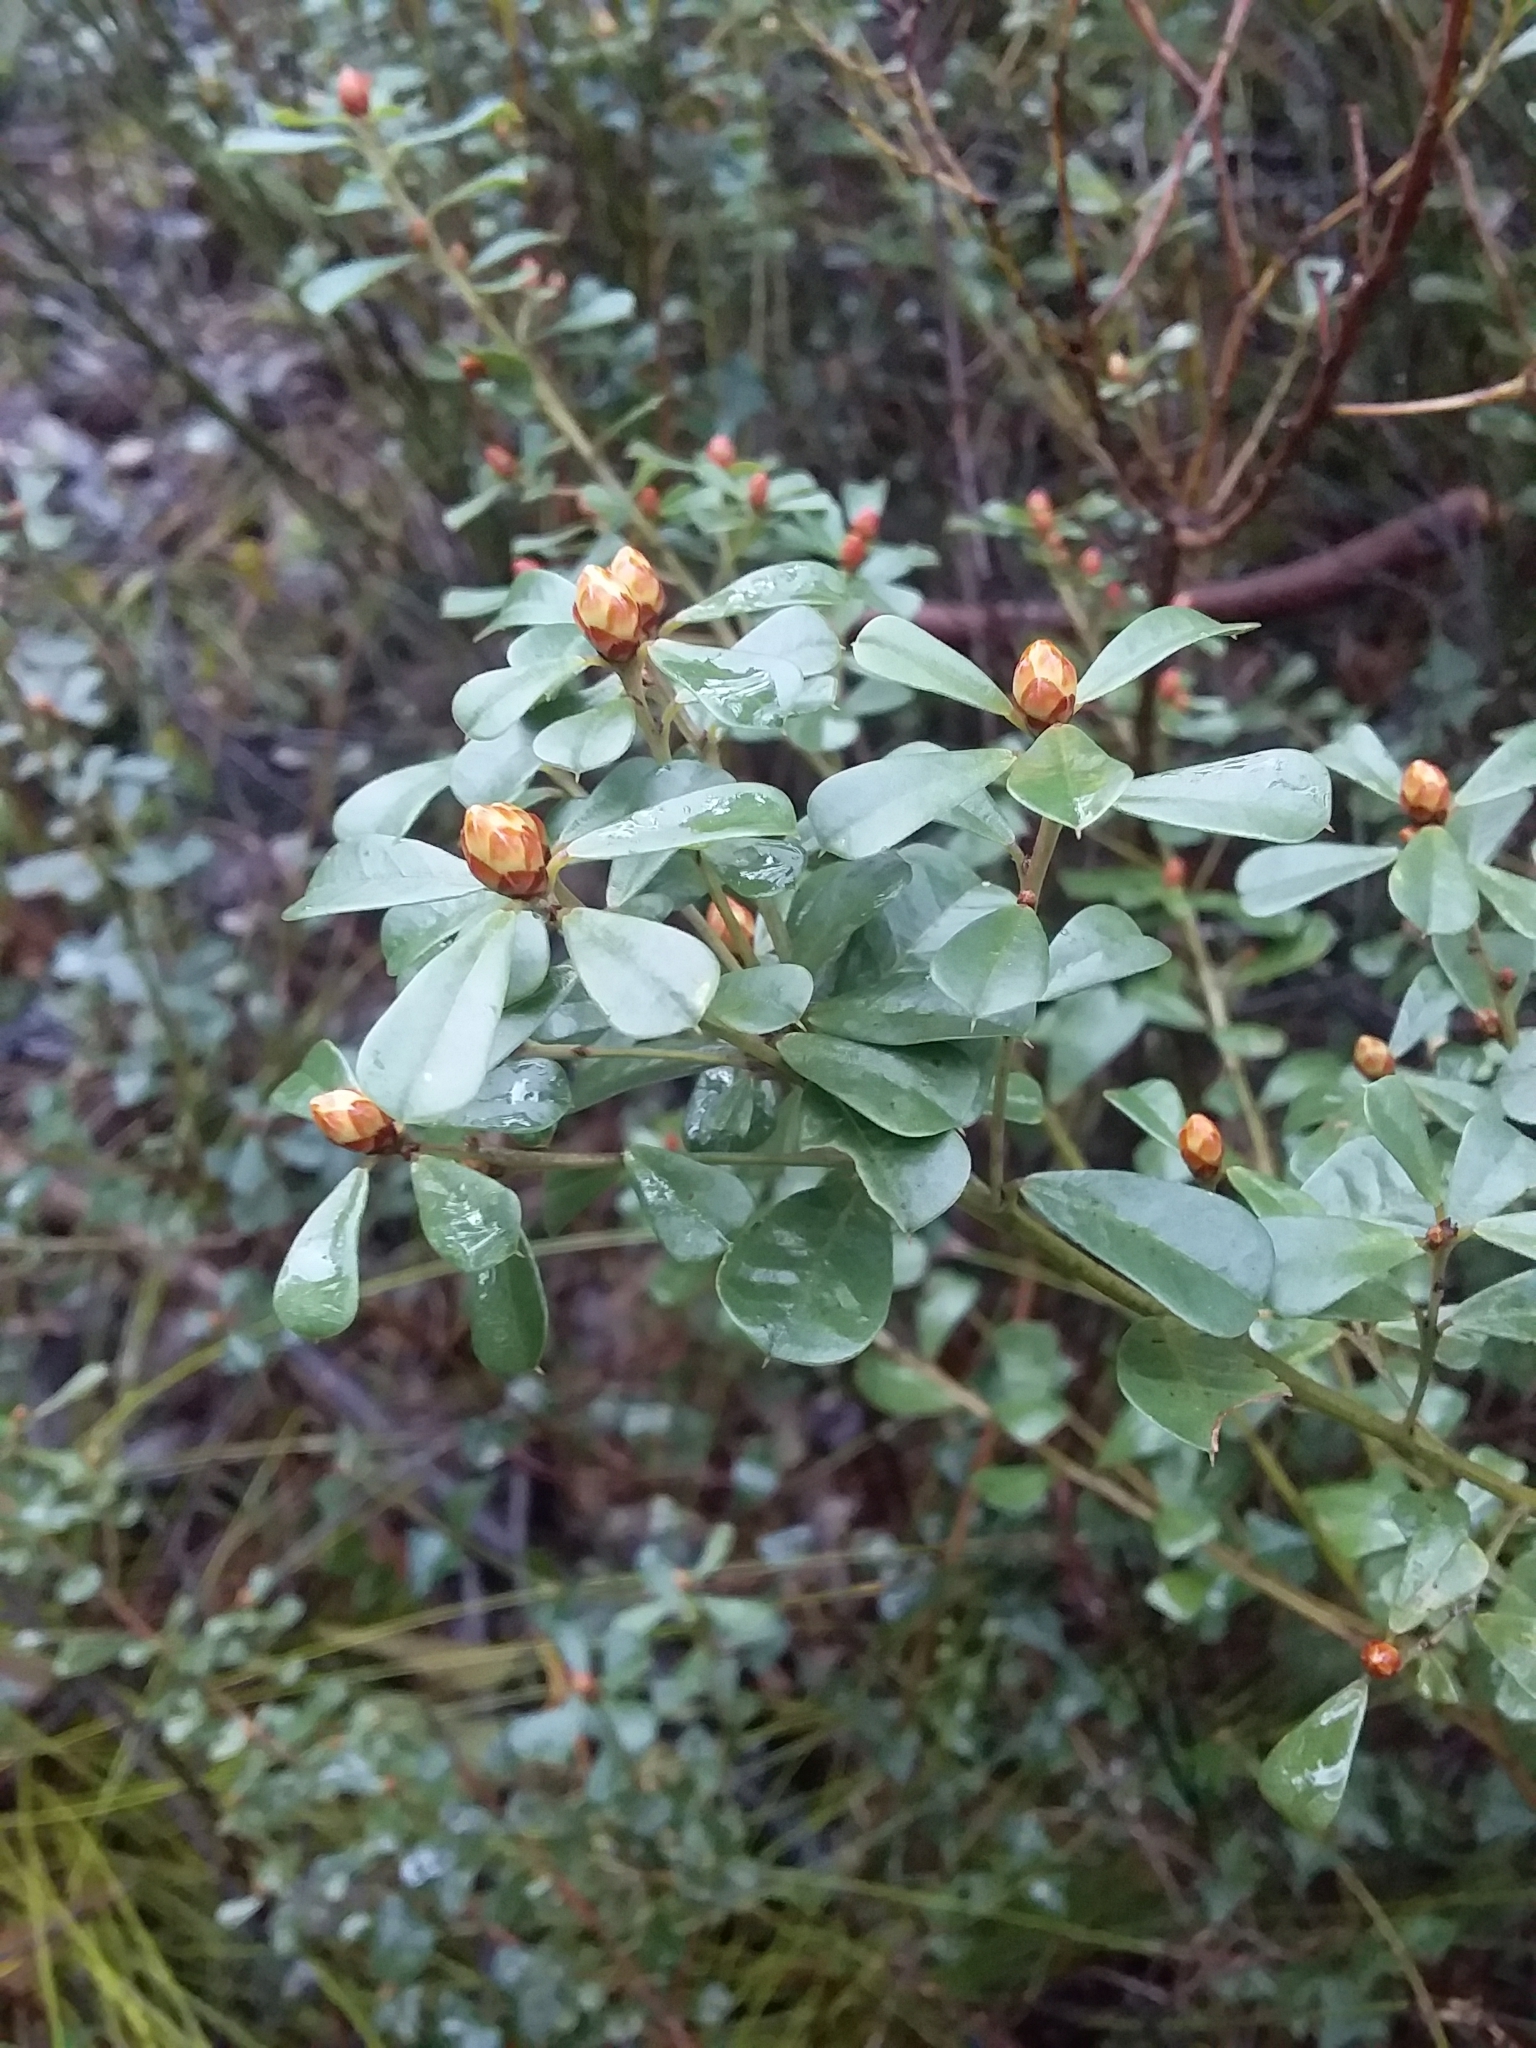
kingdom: Plantae
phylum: Tracheophyta
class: Magnoliopsida
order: Fabales
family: Fabaceae
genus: Pultenaea
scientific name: Pultenaea daphnoides
